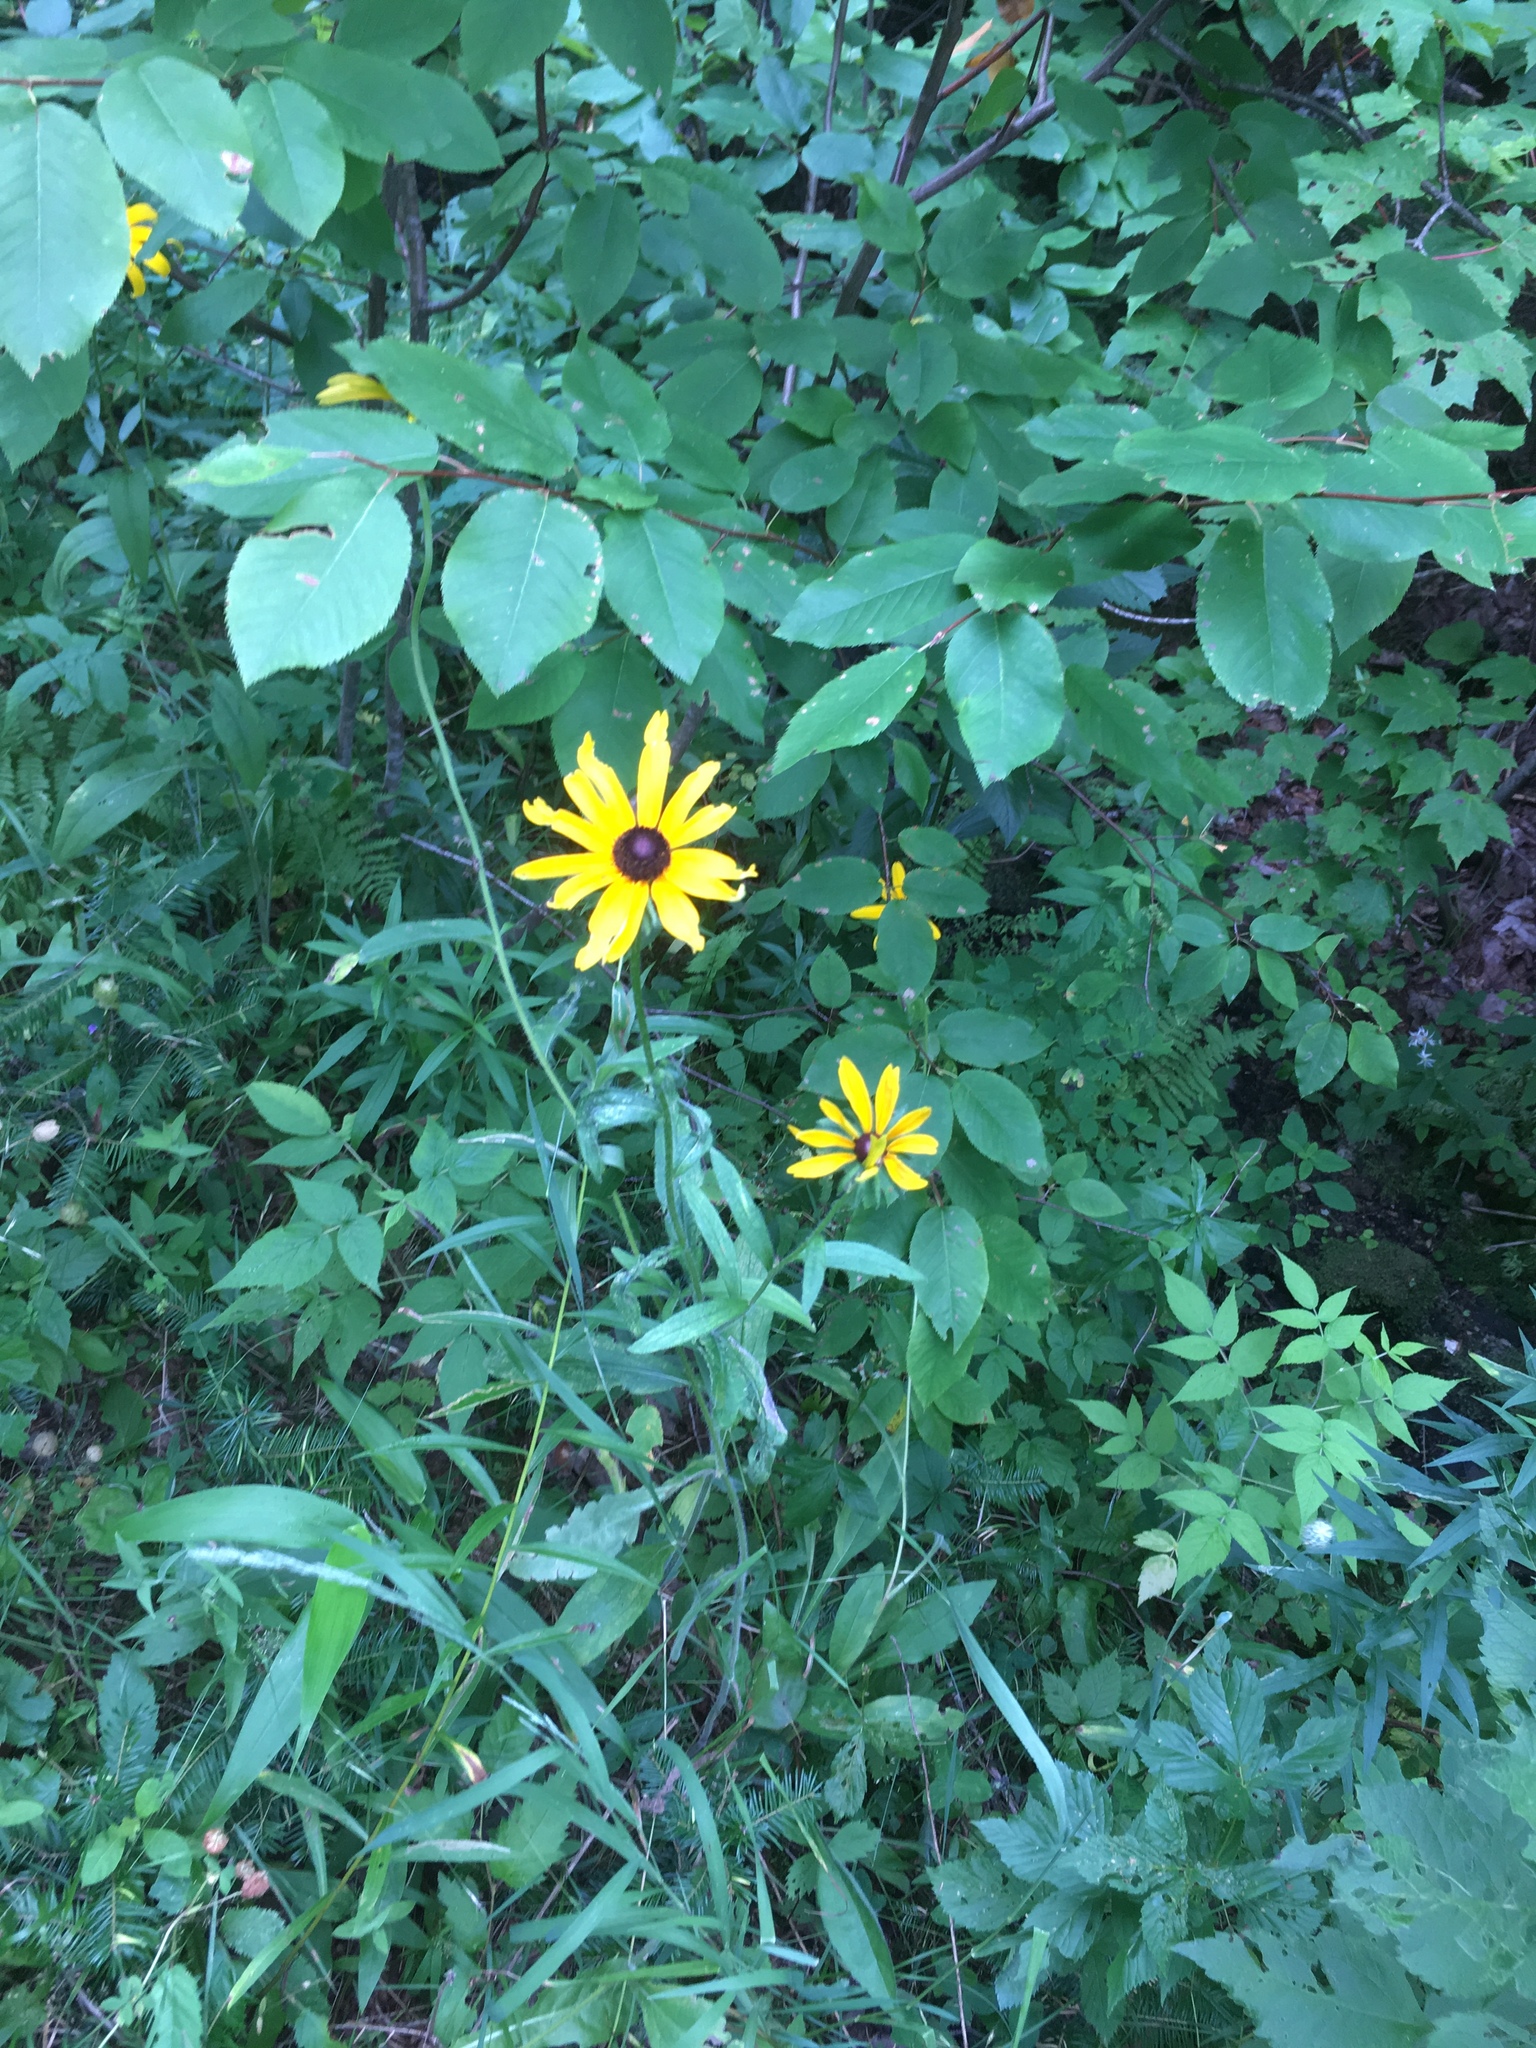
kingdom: Plantae
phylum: Tracheophyta
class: Magnoliopsida
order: Asterales
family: Asteraceae
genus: Rudbeckia
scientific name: Rudbeckia hirta
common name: Black-eyed-susan
